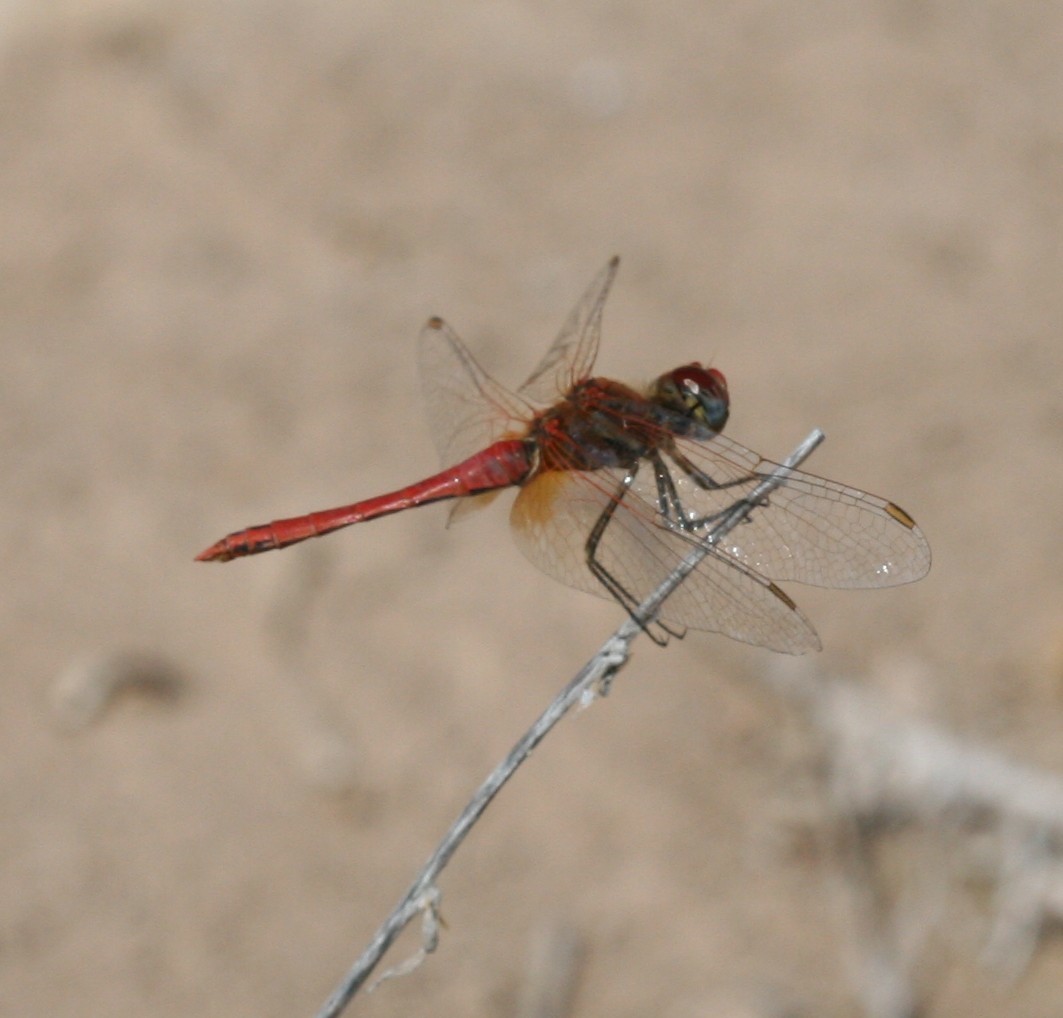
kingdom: Animalia
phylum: Arthropoda
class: Insecta
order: Odonata
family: Libellulidae
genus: Sympetrum
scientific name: Sympetrum fonscolombii
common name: Red-veined darter
